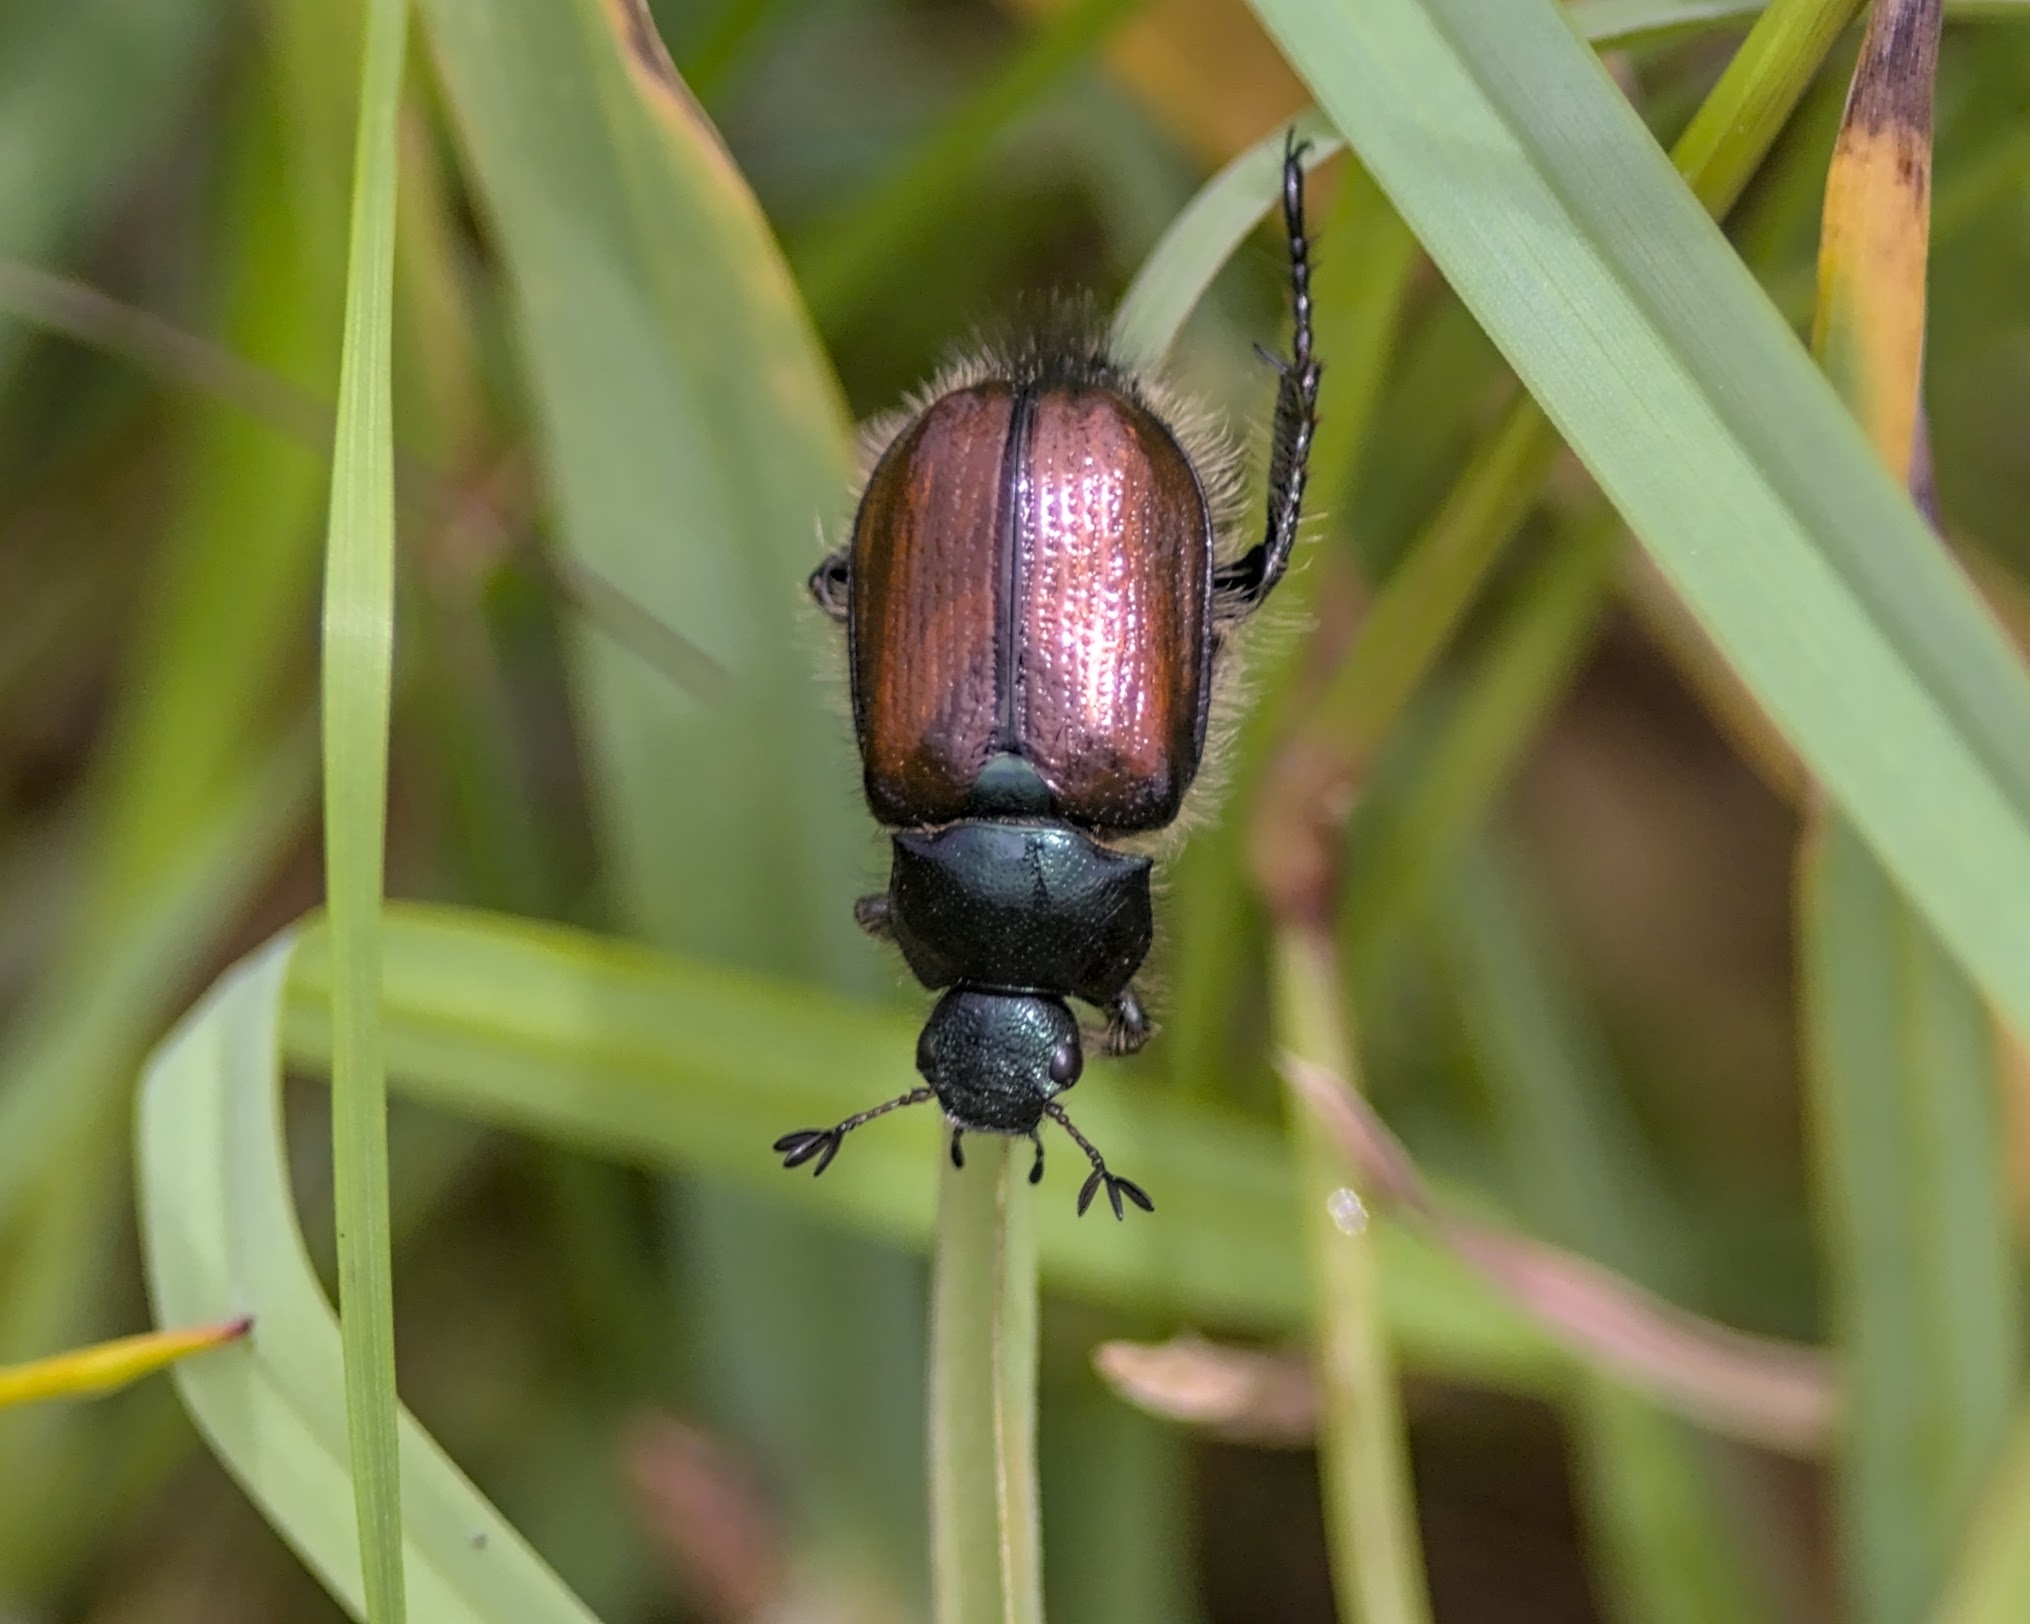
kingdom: Animalia
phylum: Arthropoda
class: Insecta
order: Coleoptera
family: Scarabaeidae
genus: Phyllopertha
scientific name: Phyllopertha horticola
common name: Garden chafer
